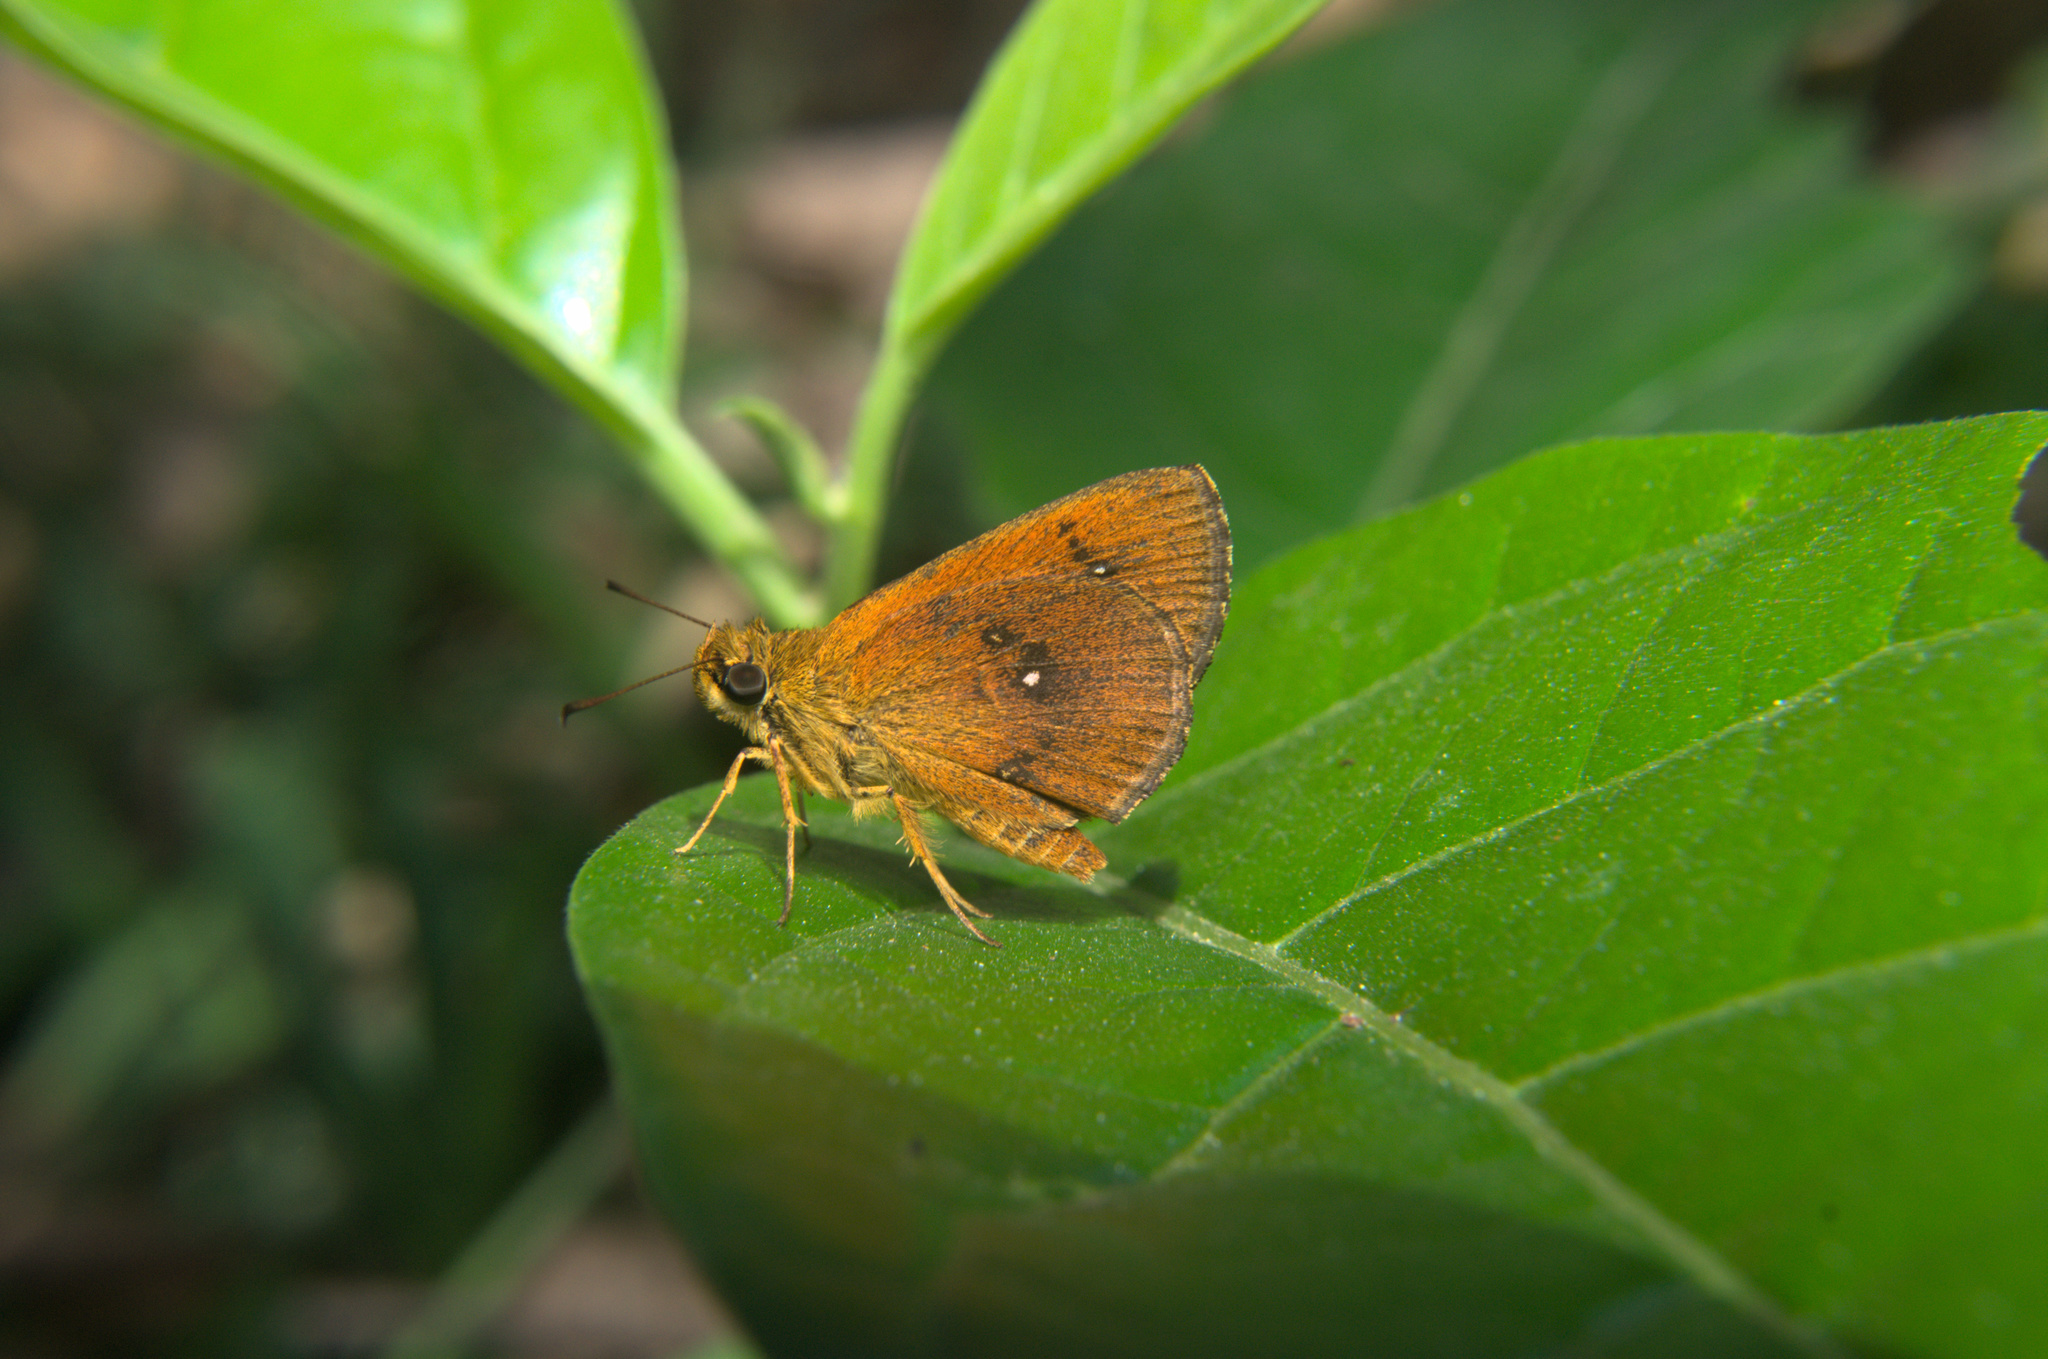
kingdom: Animalia
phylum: Arthropoda
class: Insecta
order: Lepidoptera
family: Hesperiidae
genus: Iambrix
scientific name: Iambrix salsala
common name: Chestnut bob
